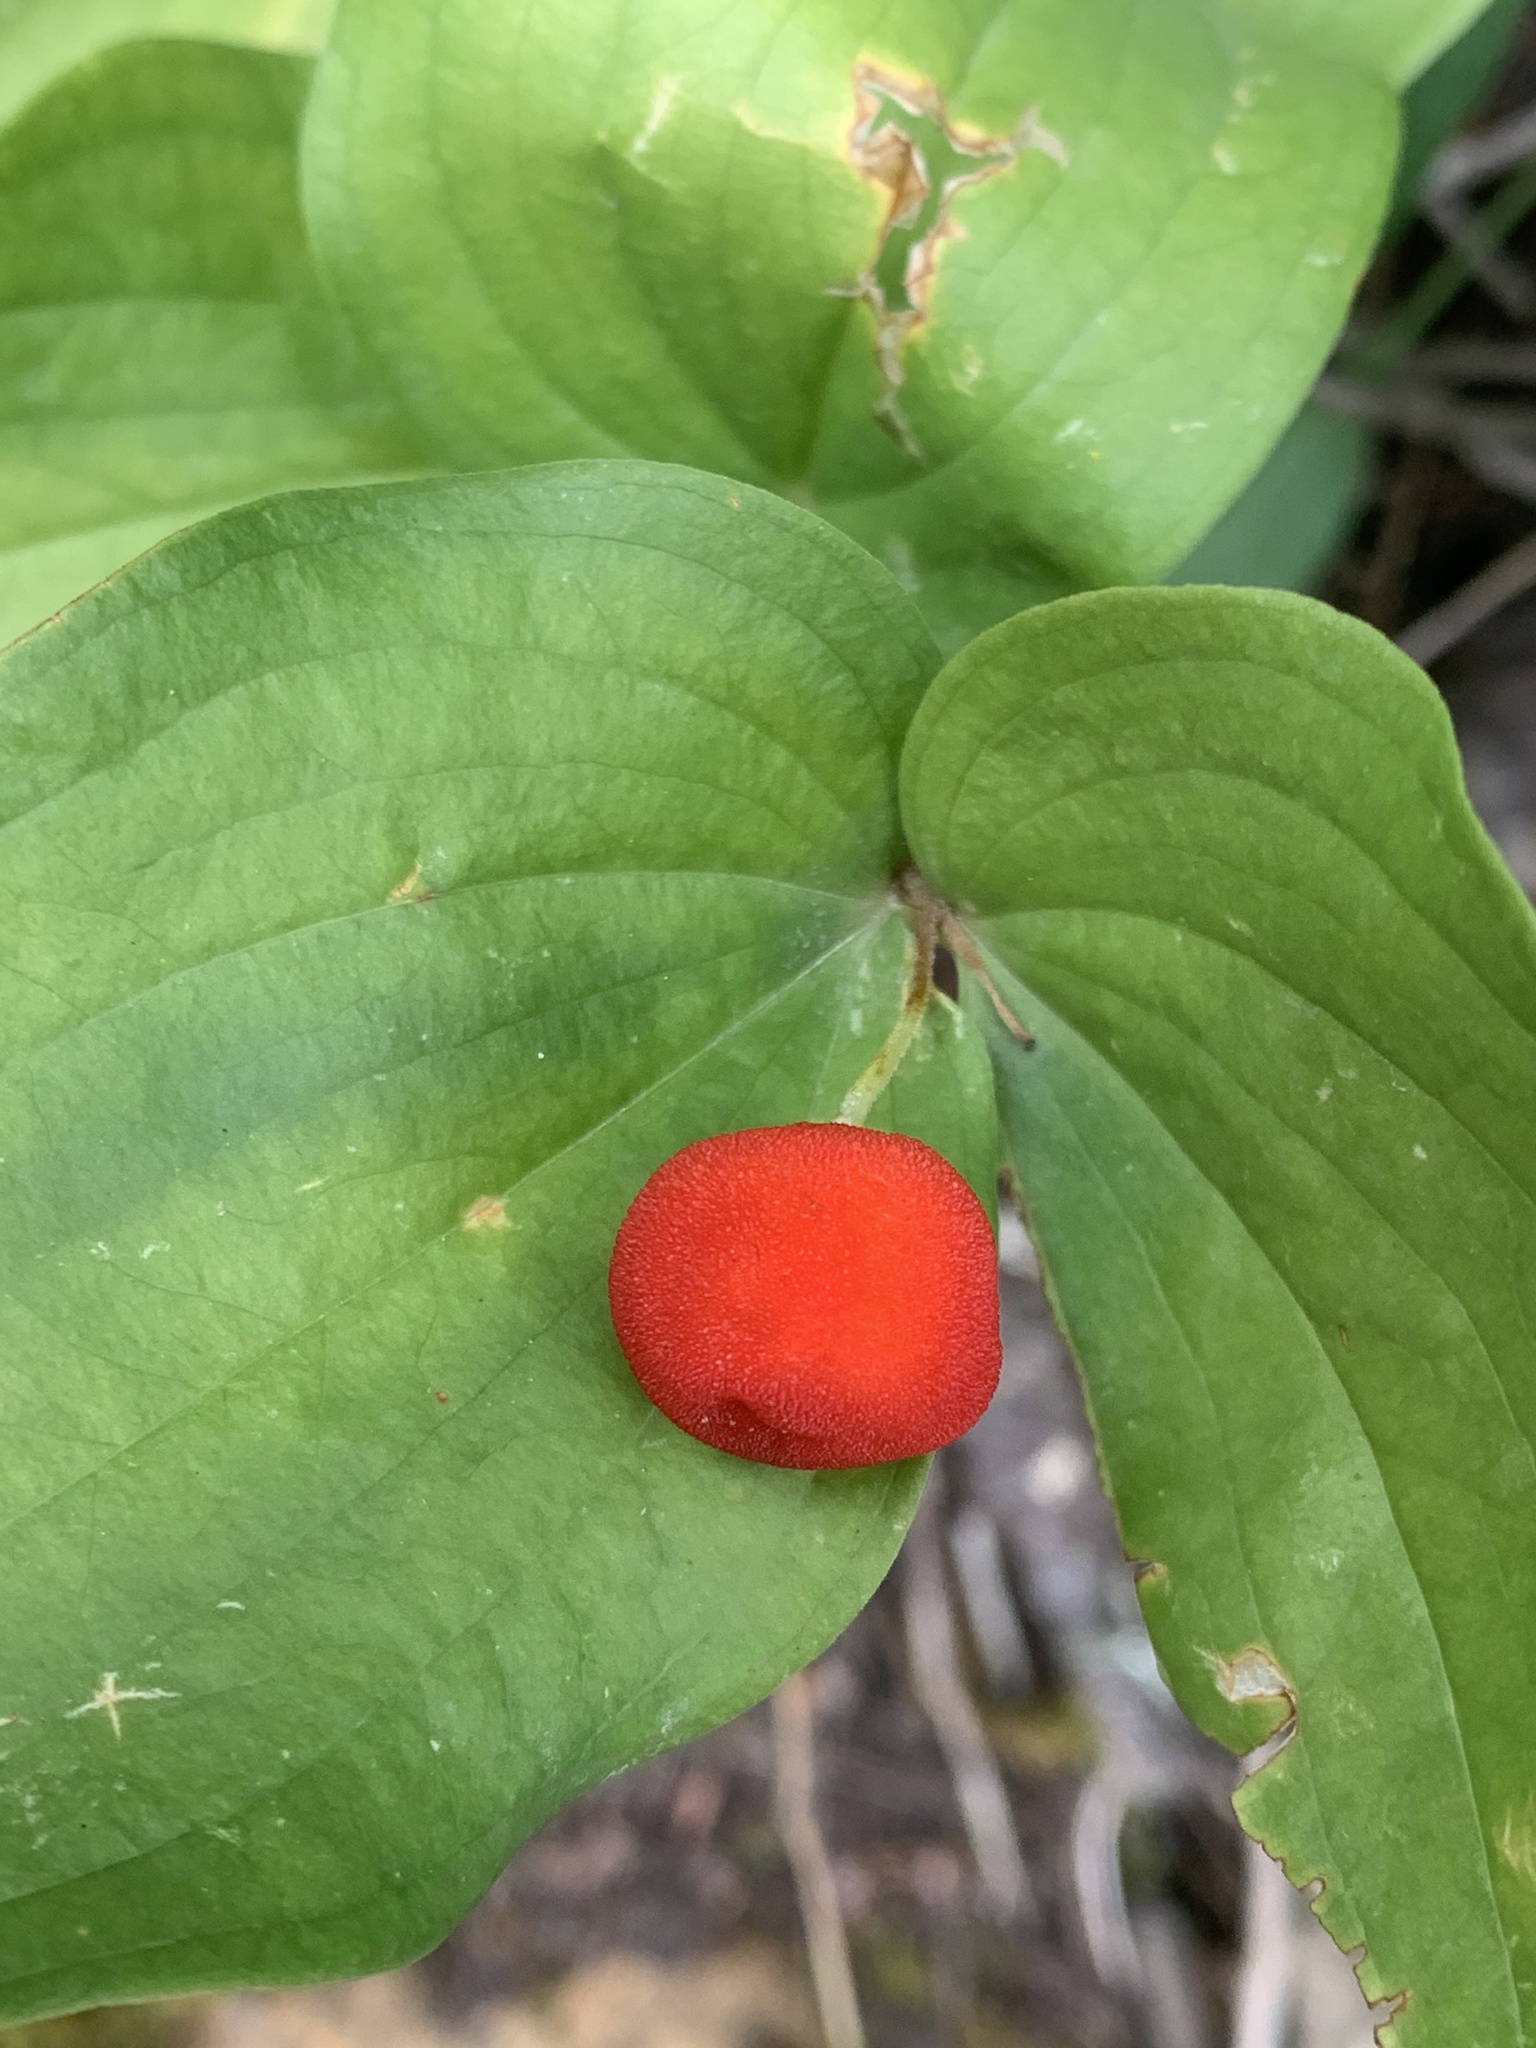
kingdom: Plantae
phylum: Tracheophyta
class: Liliopsida
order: Liliales
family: Liliaceae
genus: Prosartes
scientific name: Prosartes trachycarpa
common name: Rough-fruit fairy-bells
